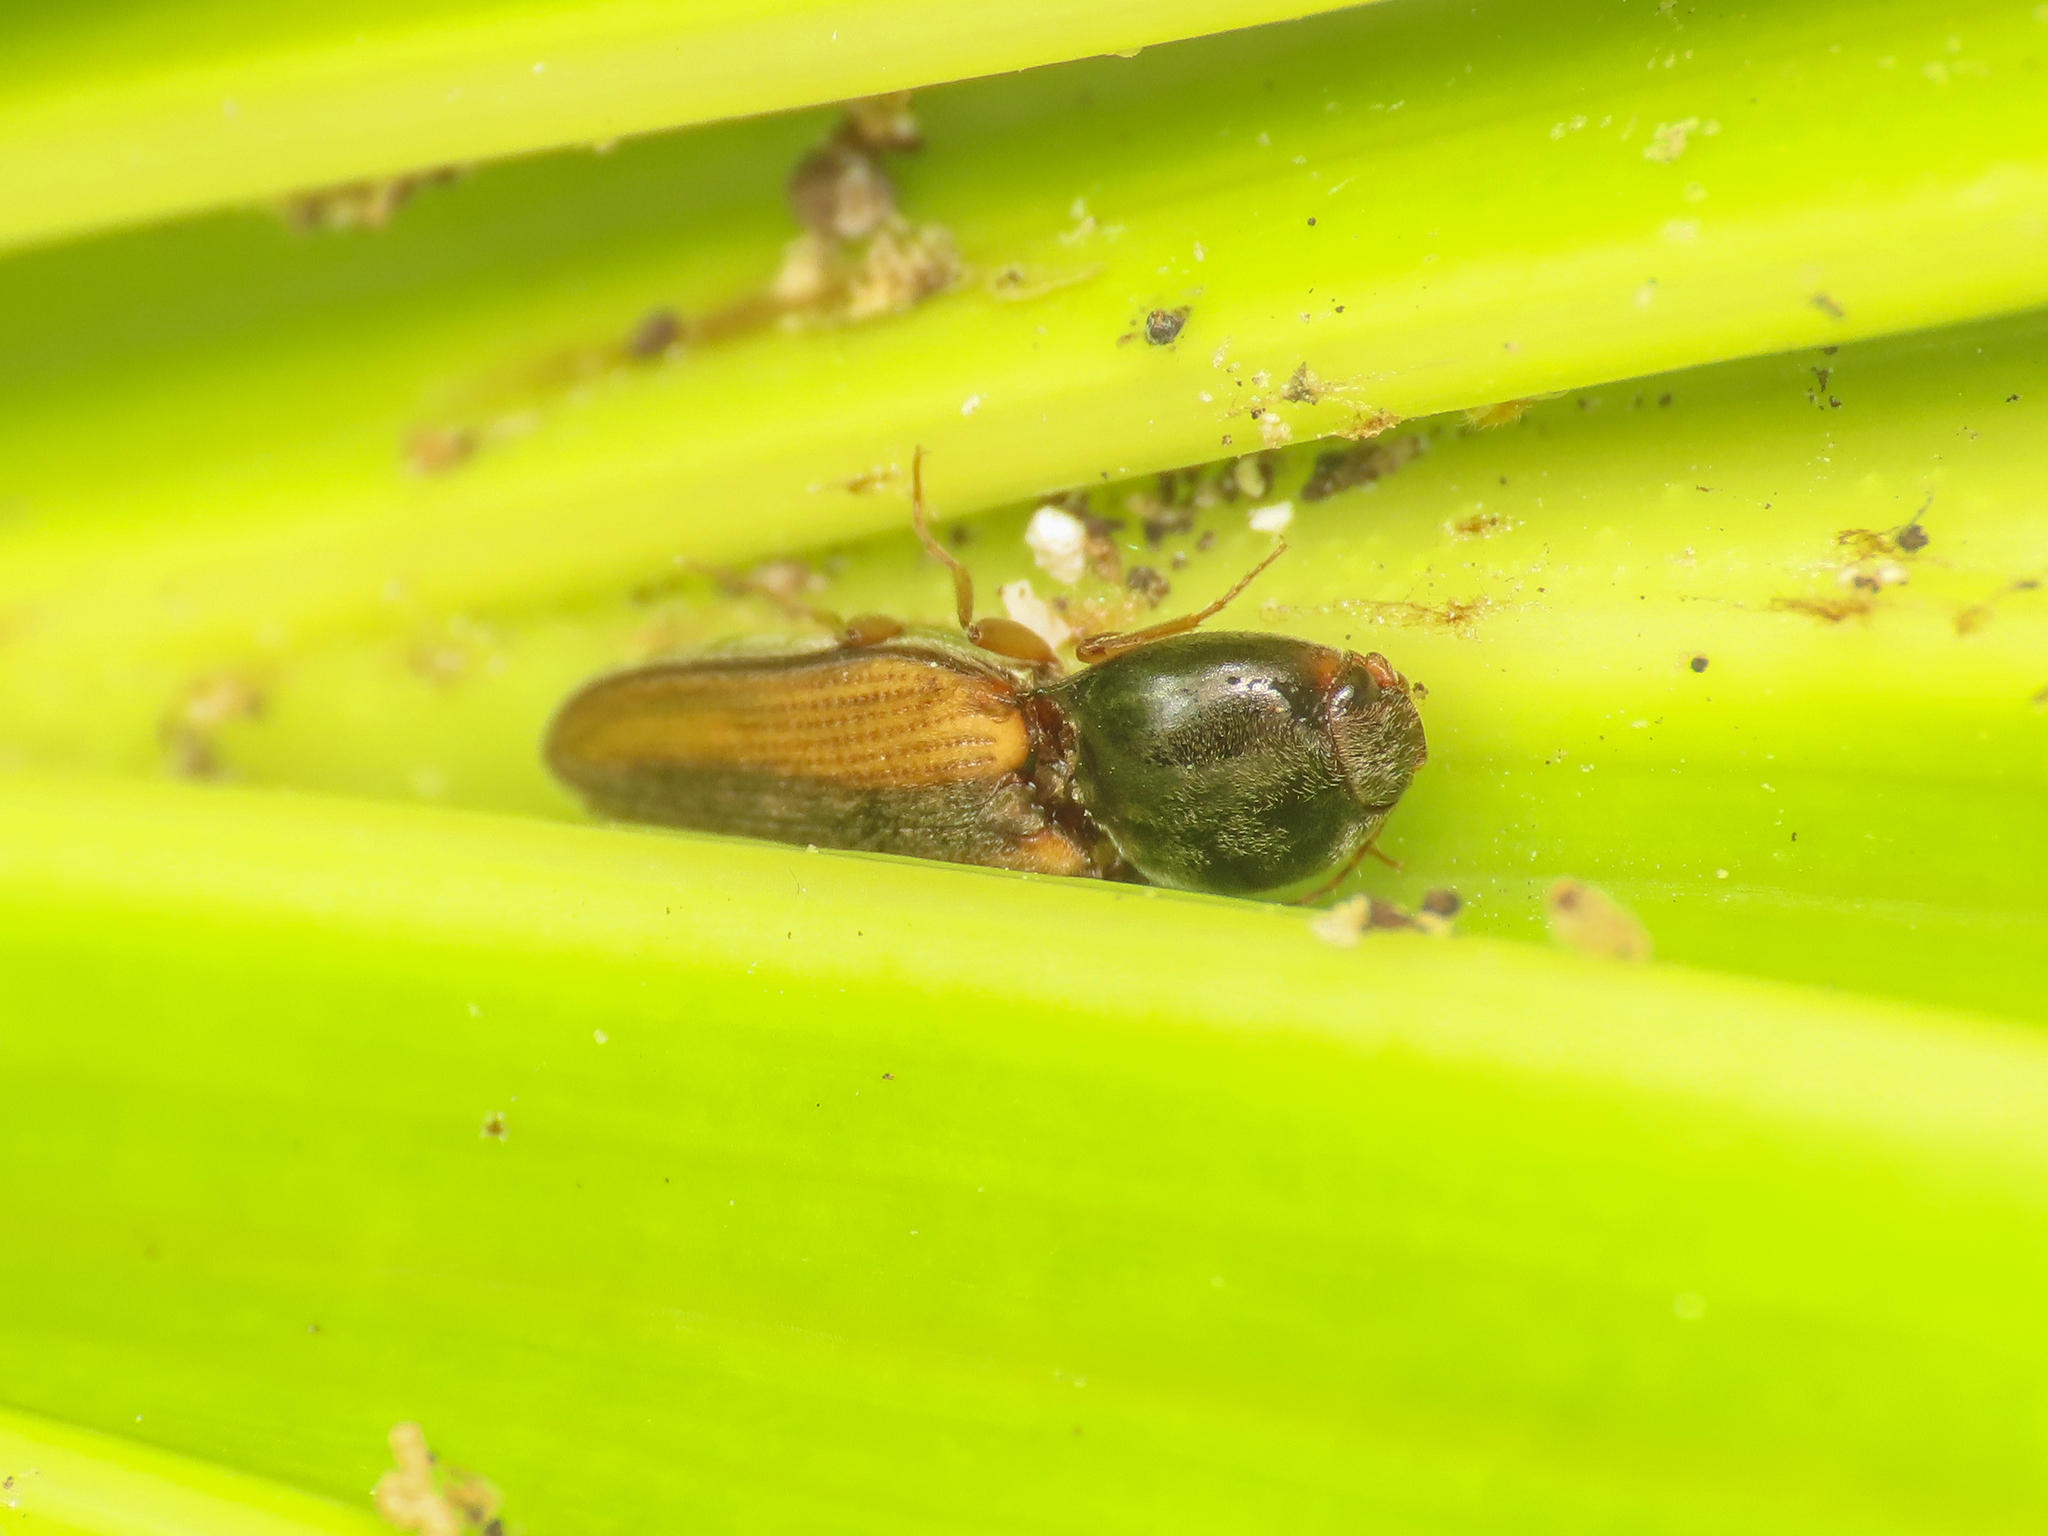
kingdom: Animalia
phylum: Arthropoda
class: Insecta
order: Coleoptera
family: Elateridae
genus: Dicronychus
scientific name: Dicronychus
